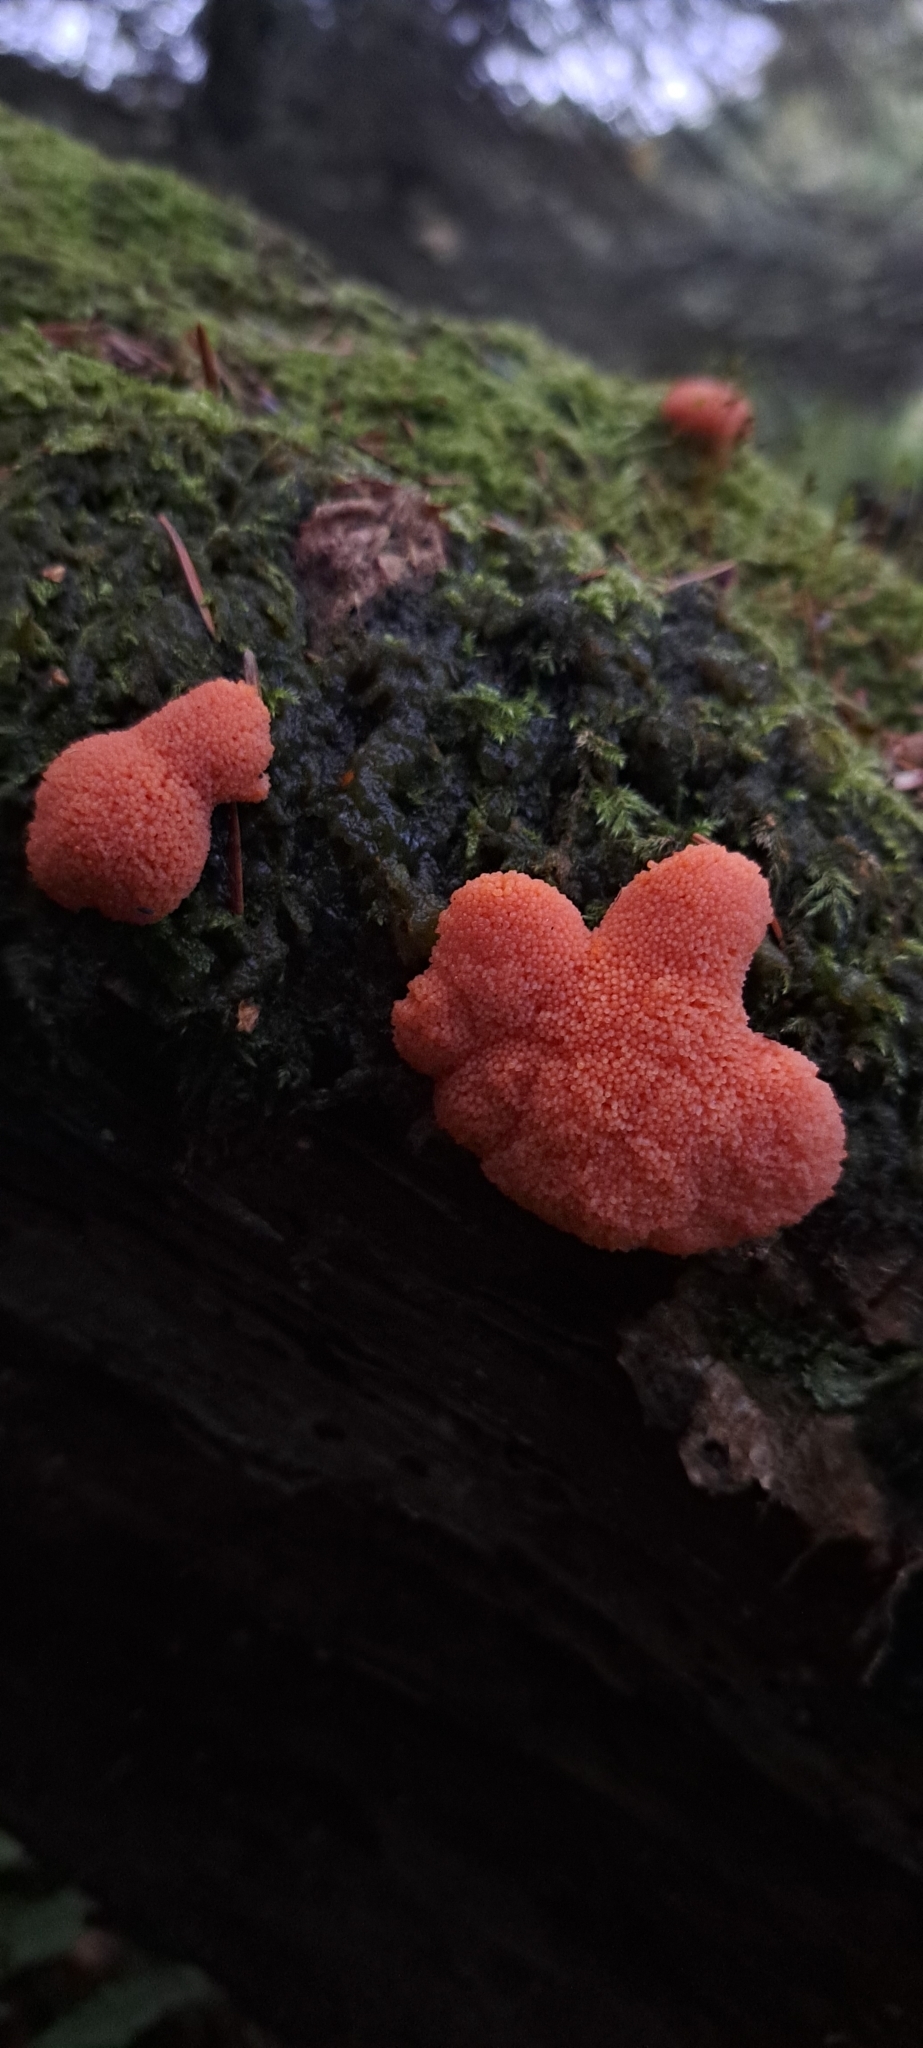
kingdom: Protozoa
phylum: Mycetozoa
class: Myxomycetes
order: Cribrariales
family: Tubiferaceae
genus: Tubifera
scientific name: Tubifera ferruginosa
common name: Red raspberry slime mold
